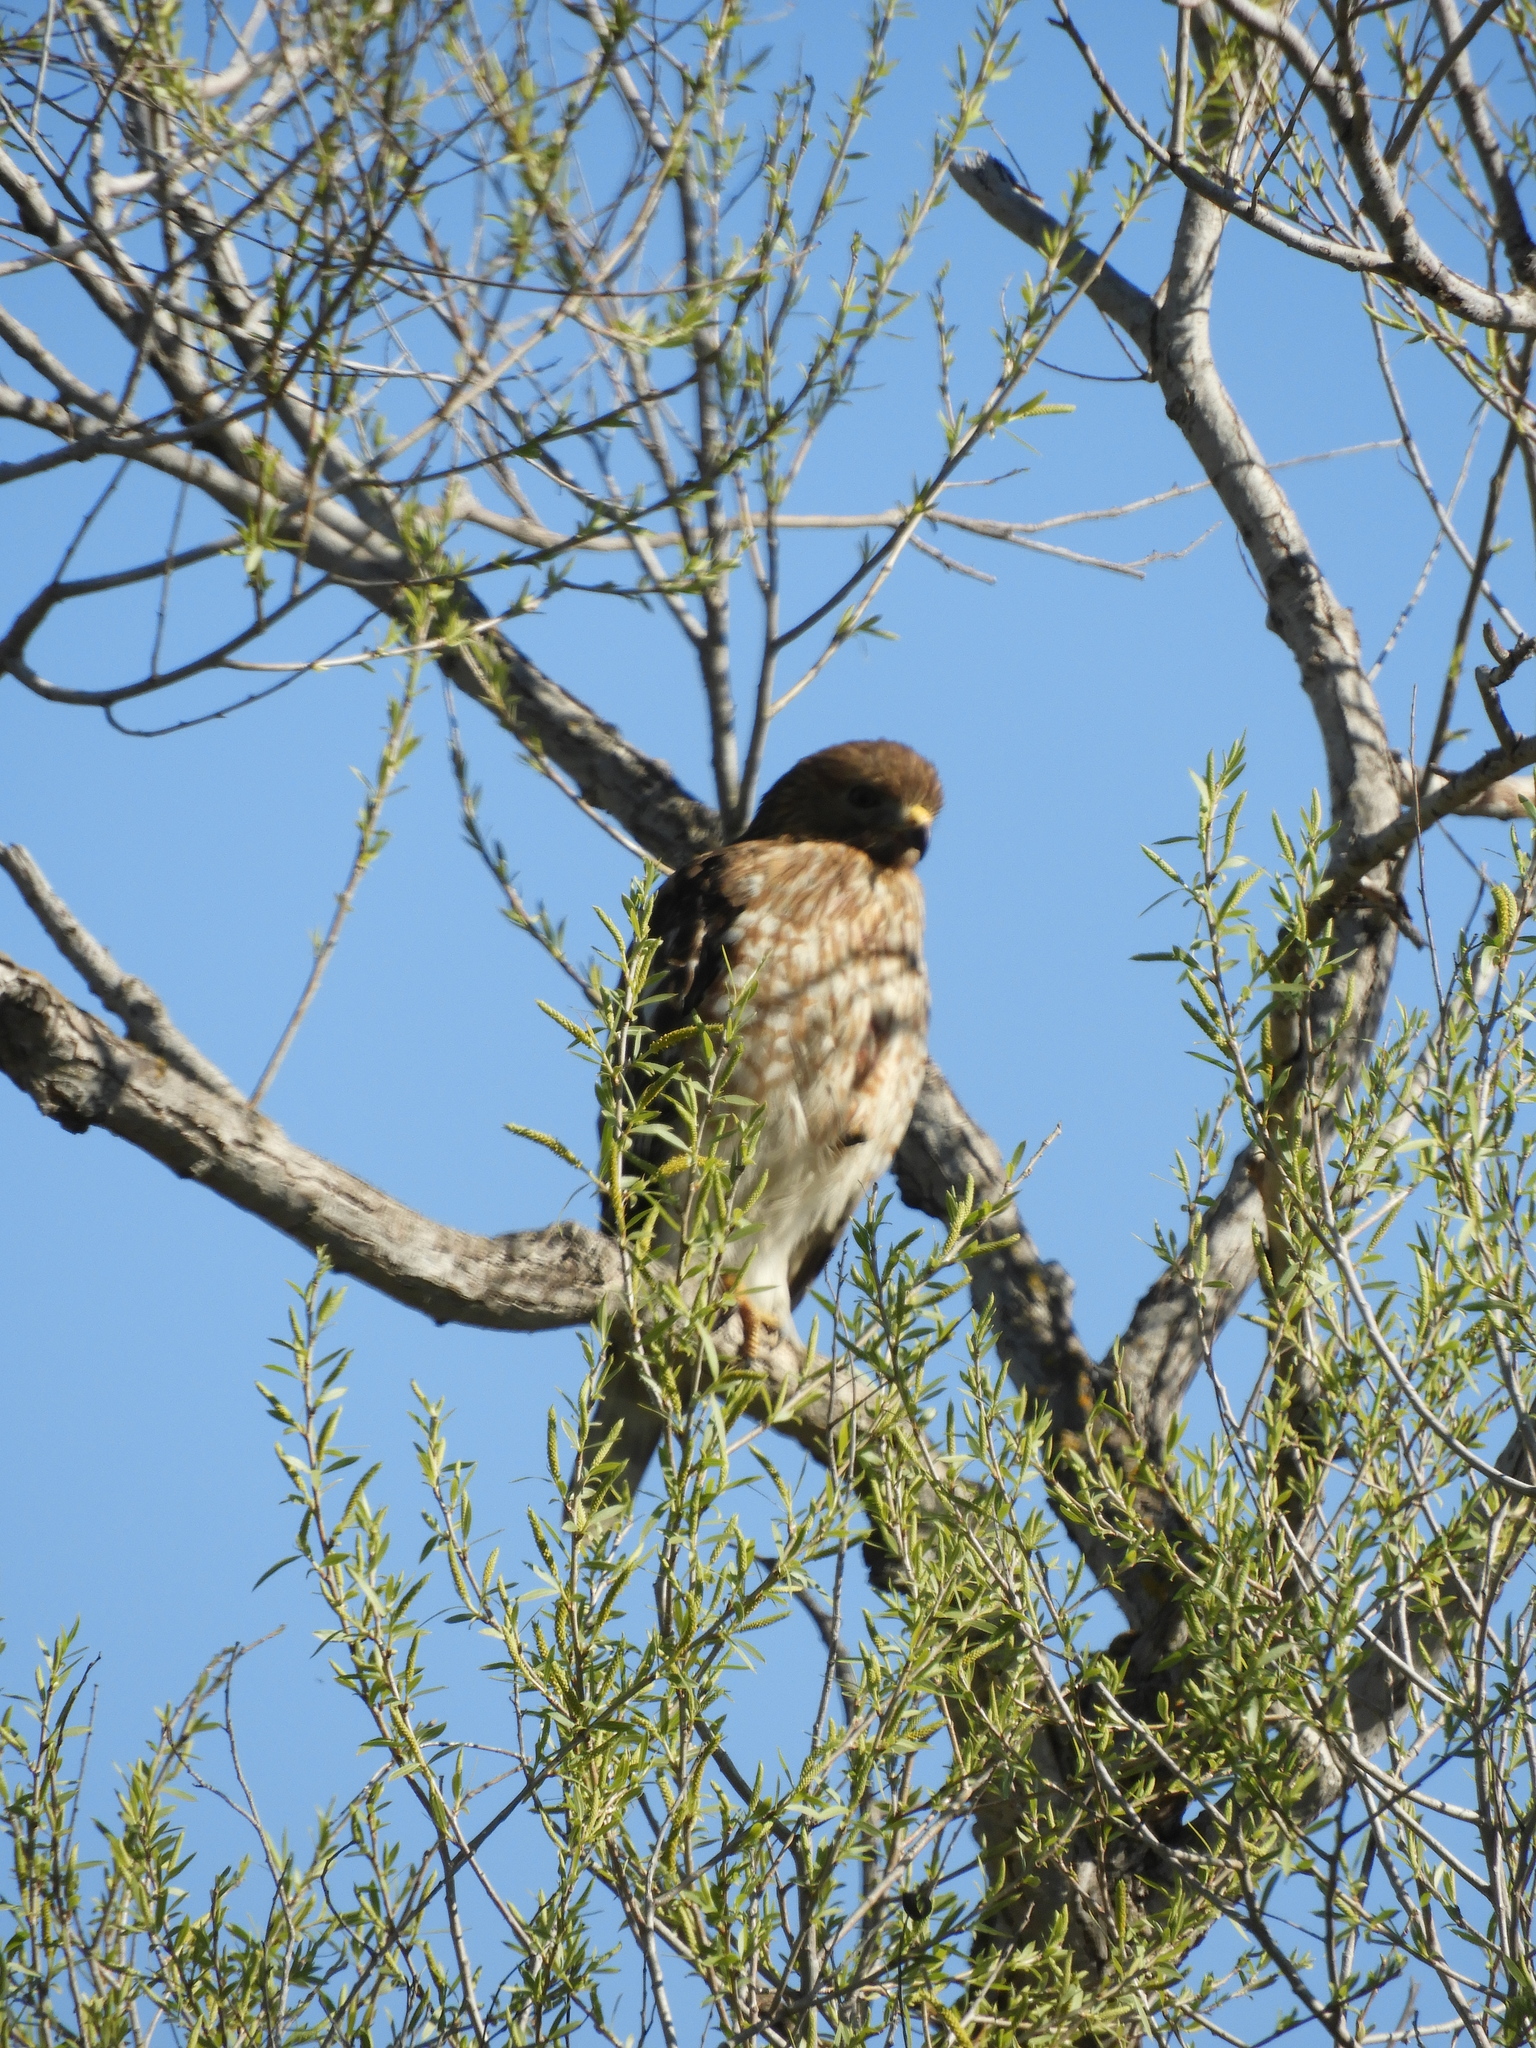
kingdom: Animalia
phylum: Chordata
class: Aves
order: Accipitriformes
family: Accipitridae
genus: Buteo
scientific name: Buteo lineatus
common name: Red-shouldered hawk
